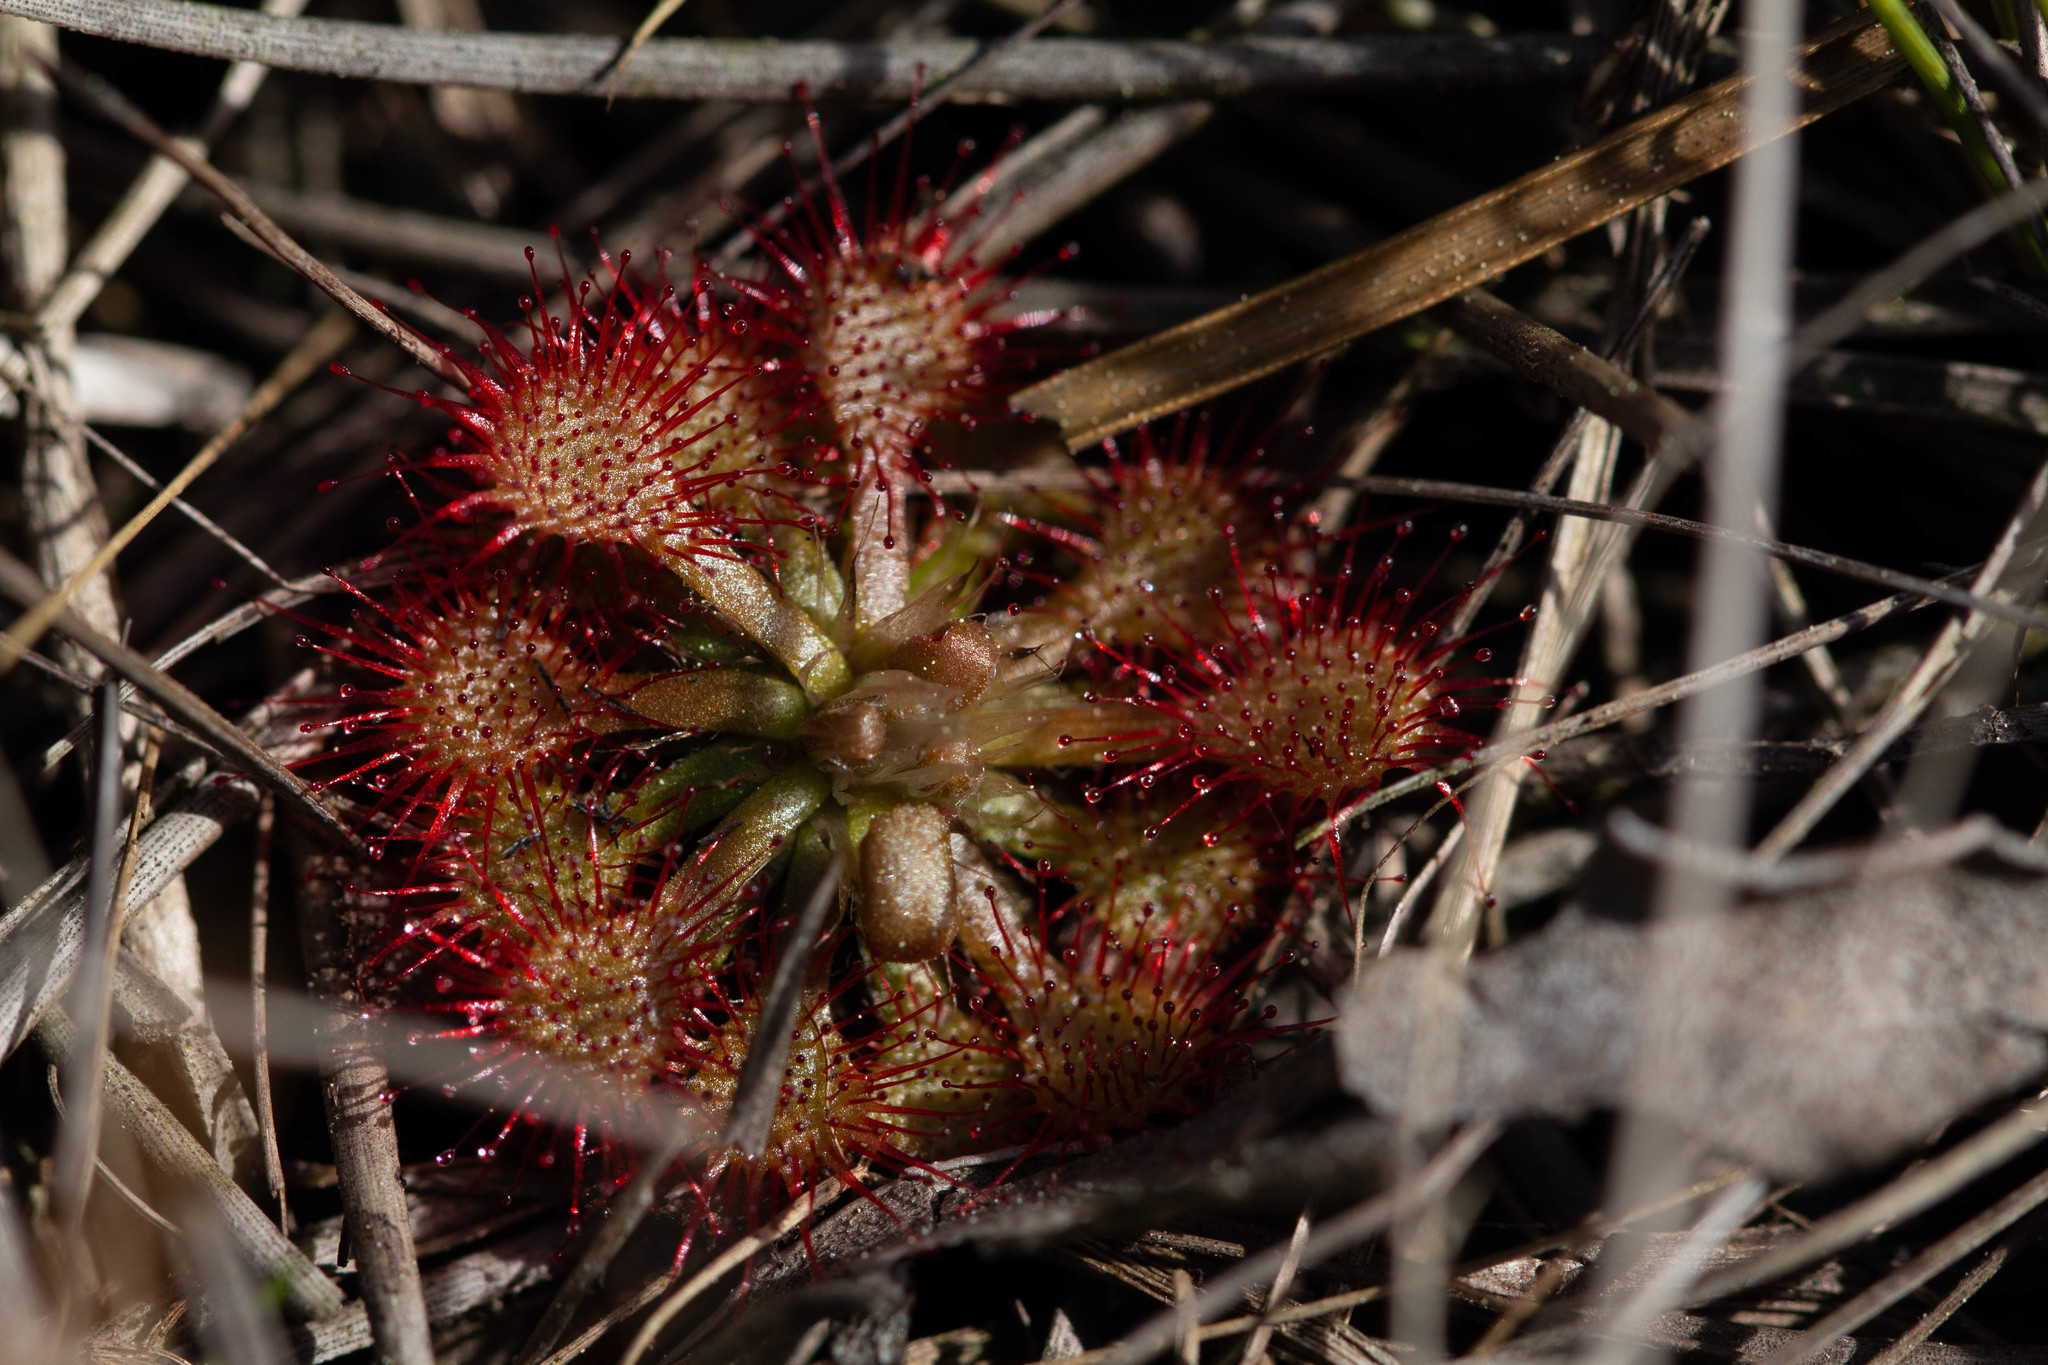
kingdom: Plantae
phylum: Tracheophyta
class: Magnoliopsida
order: Caryophyllales
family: Droseraceae
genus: Drosera
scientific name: Drosera capillaris
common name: Pink sundew
